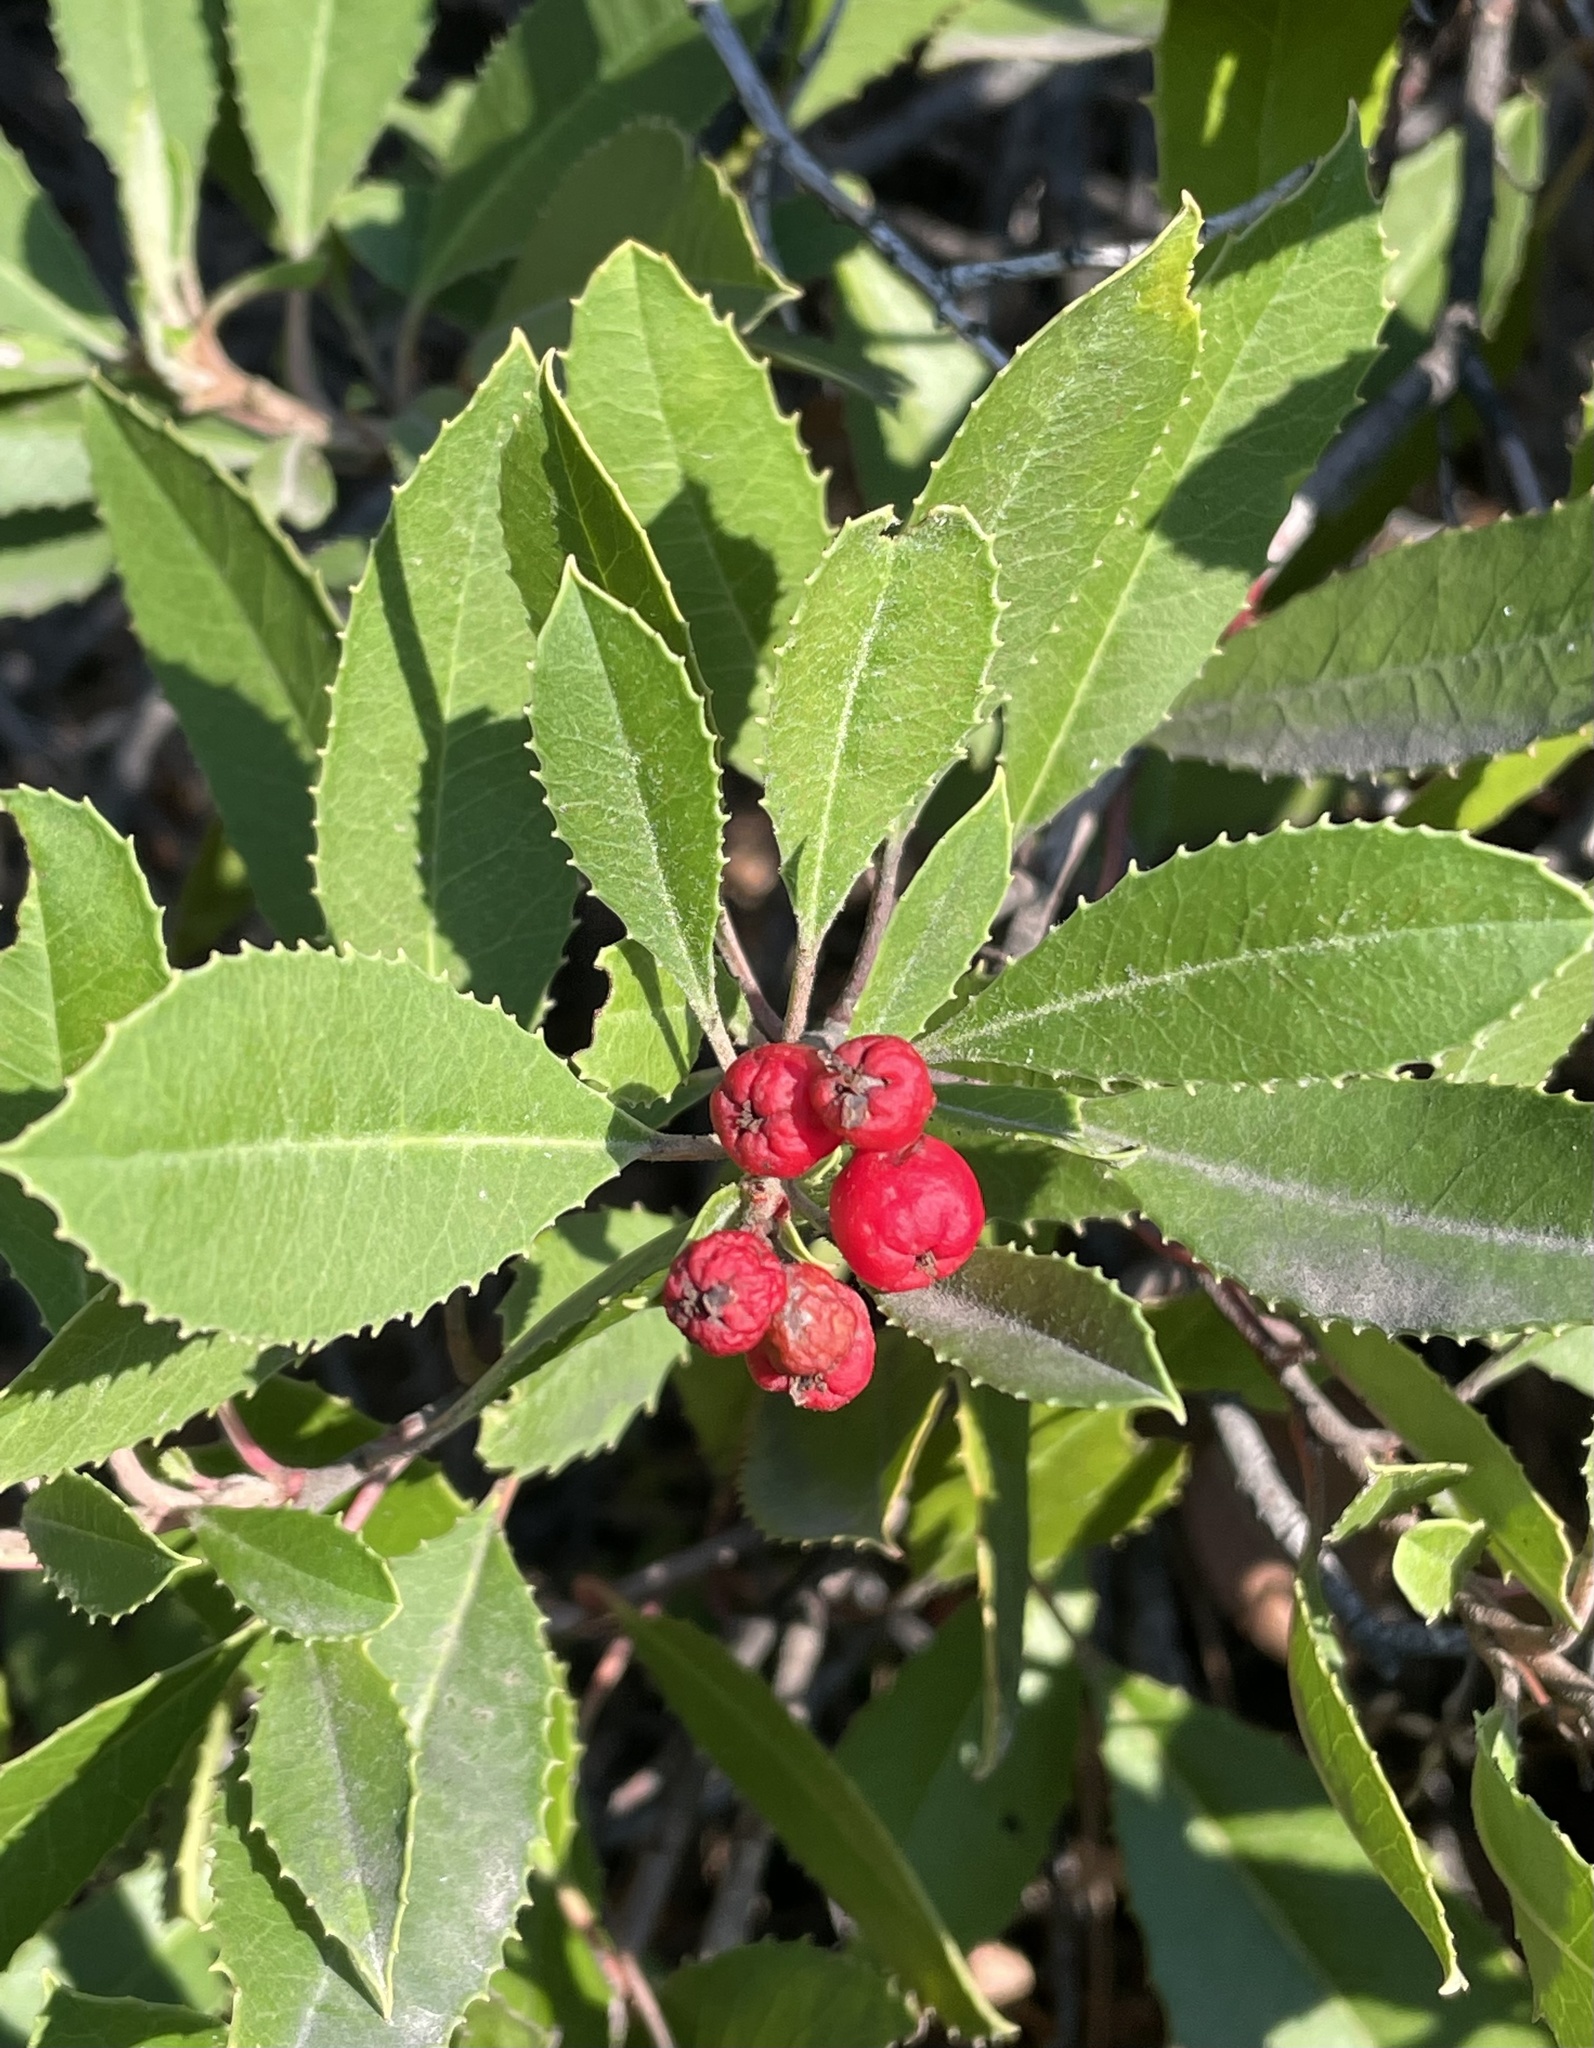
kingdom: Plantae
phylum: Tracheophyta
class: Magnoliopsida
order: Rosales
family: Rosaceae
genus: Heteromeles
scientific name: Heteromeles arbutifolia
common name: California-holly
